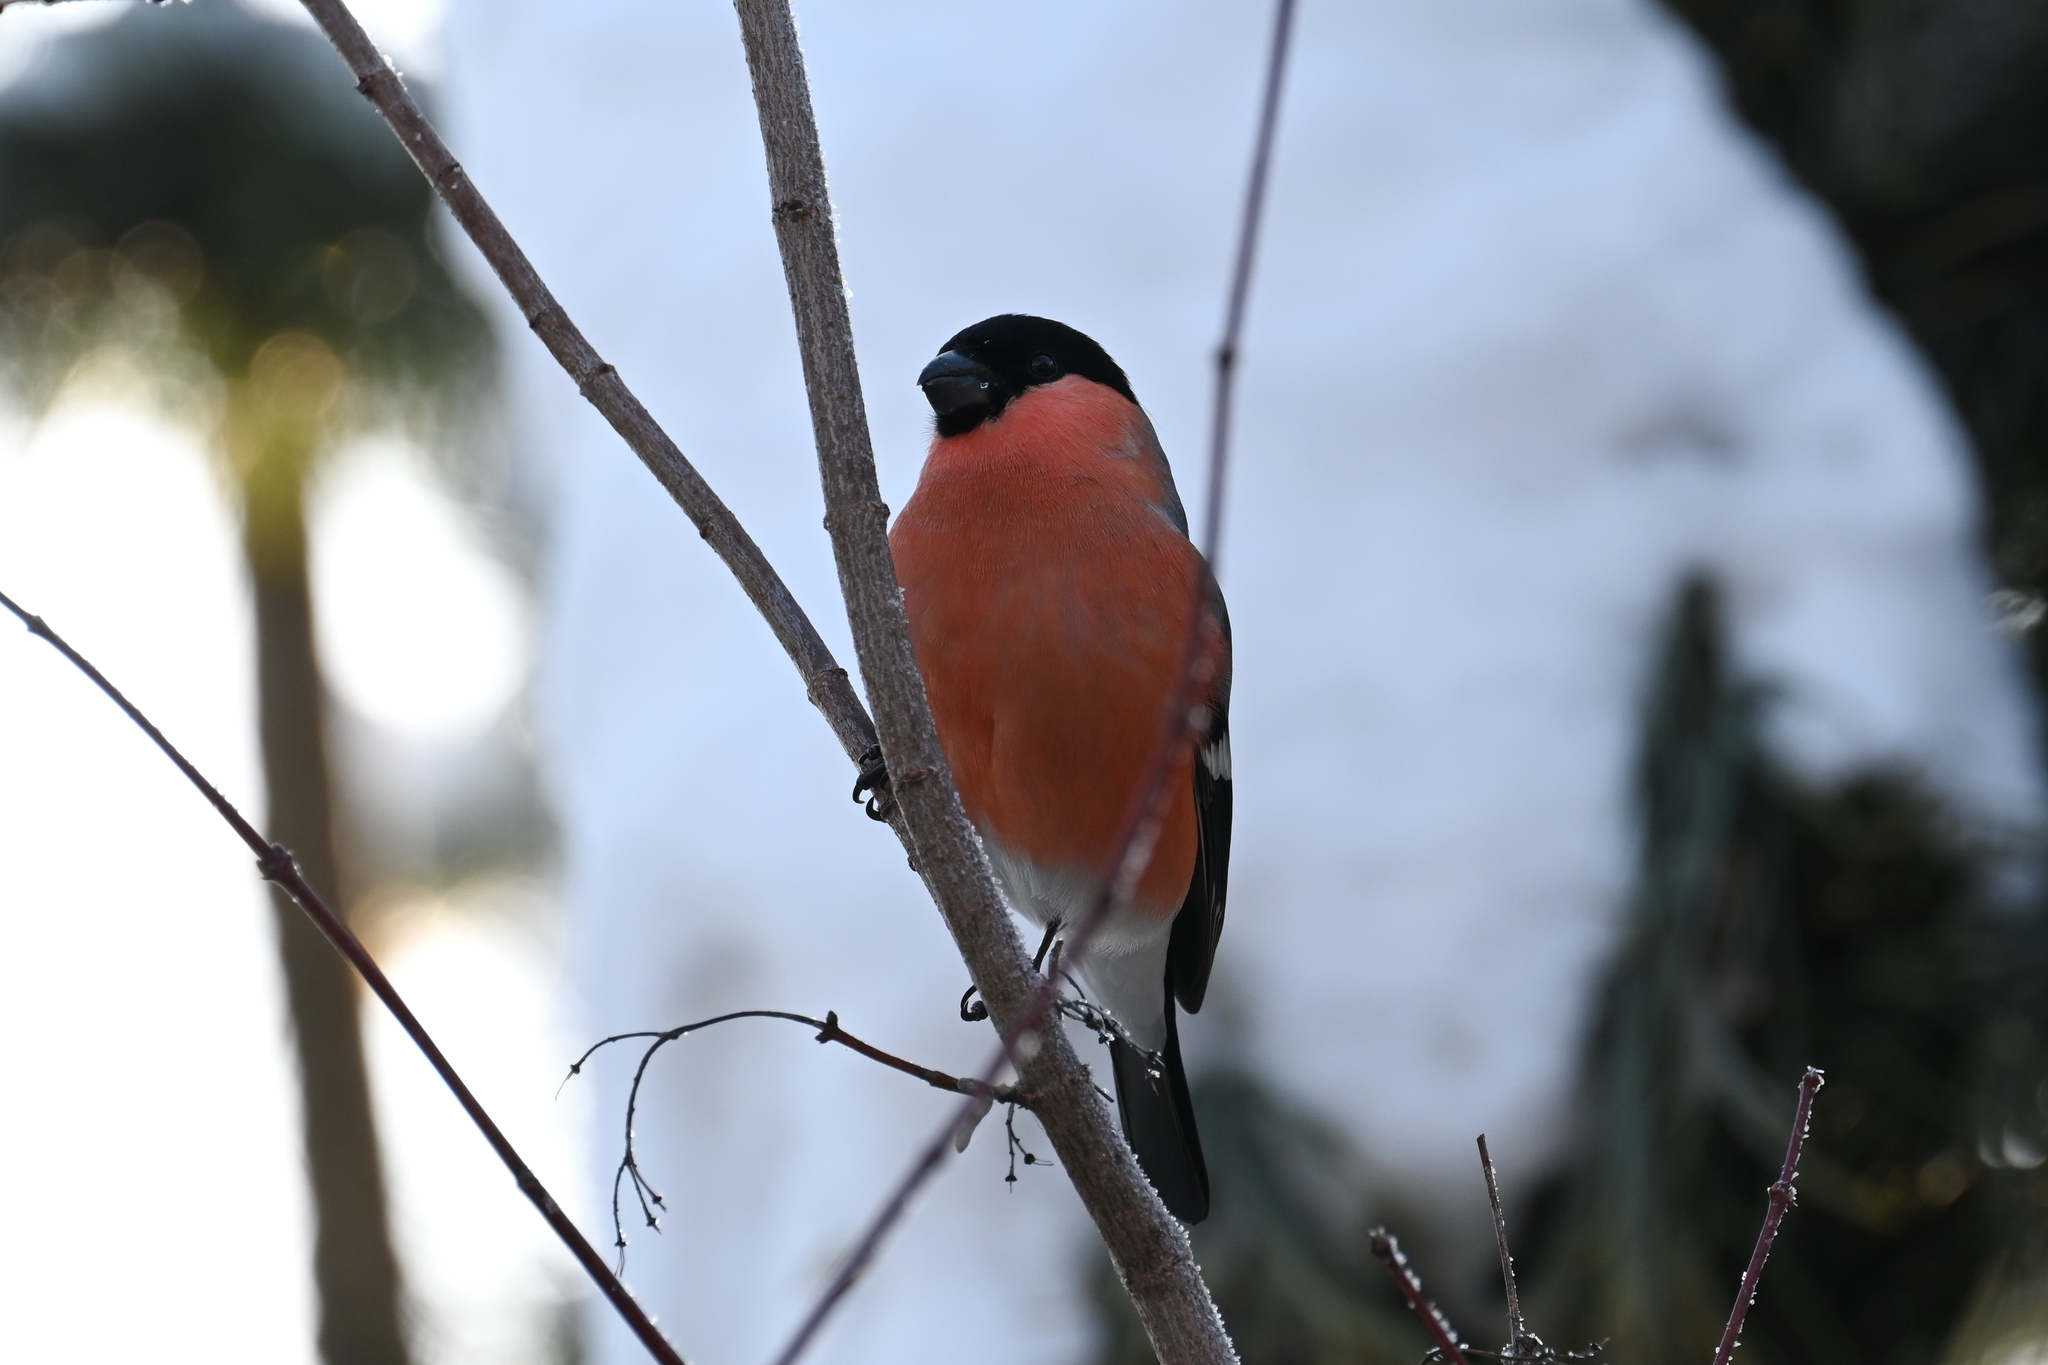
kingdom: Animalia
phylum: Chordata
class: Aves
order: Passeriformes
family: Fringillidae
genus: Pyrrhula
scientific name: Pyrrhula pyrrhula
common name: Eurasian bullfinch
